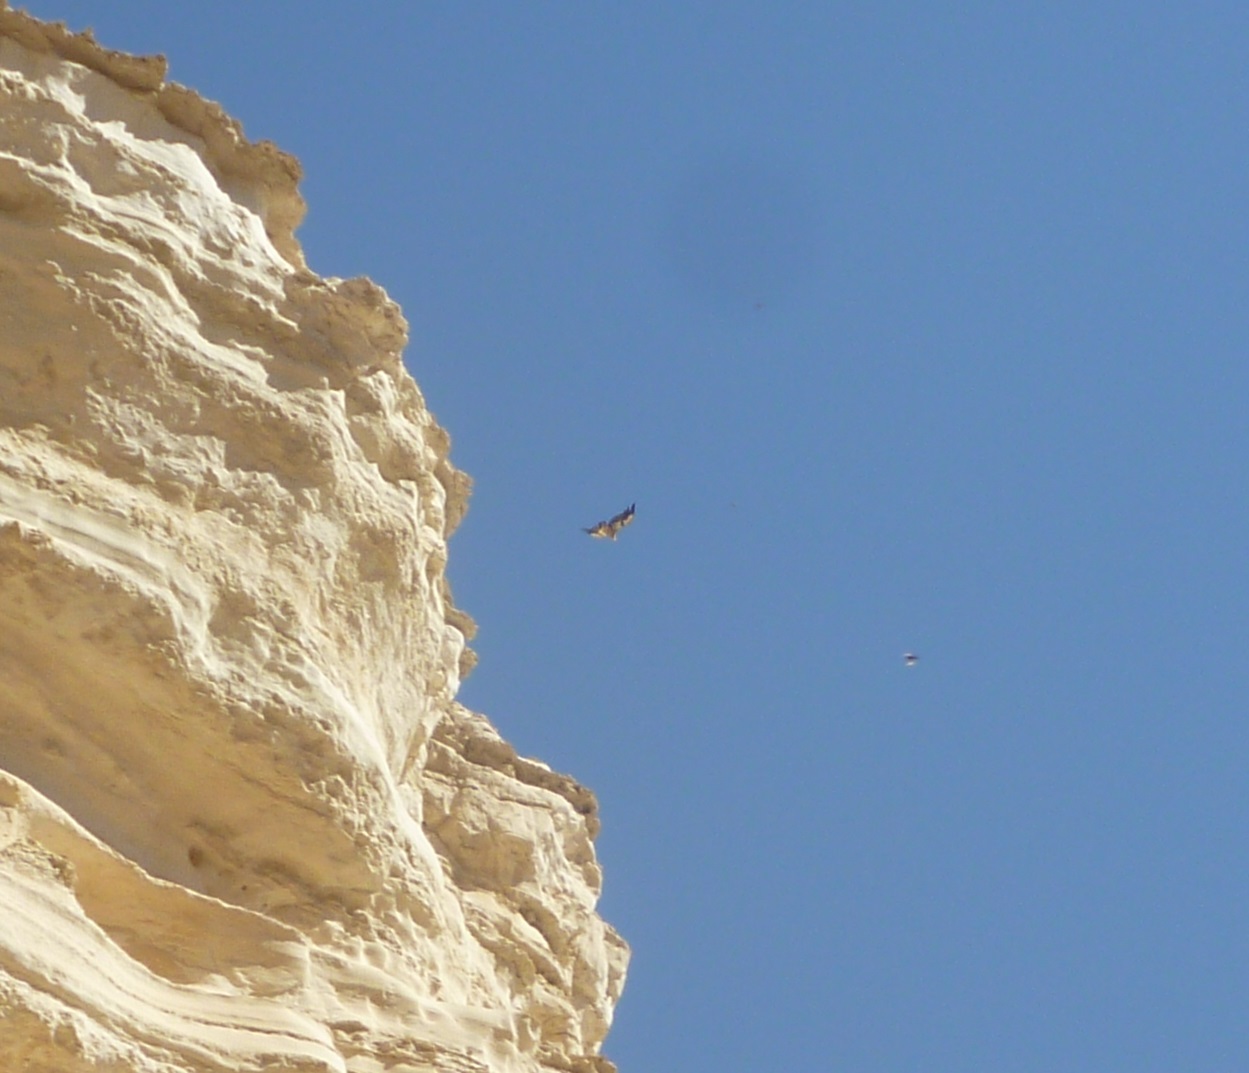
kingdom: Animalia
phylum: Chordata
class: Aves
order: Accipitriformes
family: Accipitridae
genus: Gyps
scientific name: Gyps fulvus
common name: Griffon vulture
